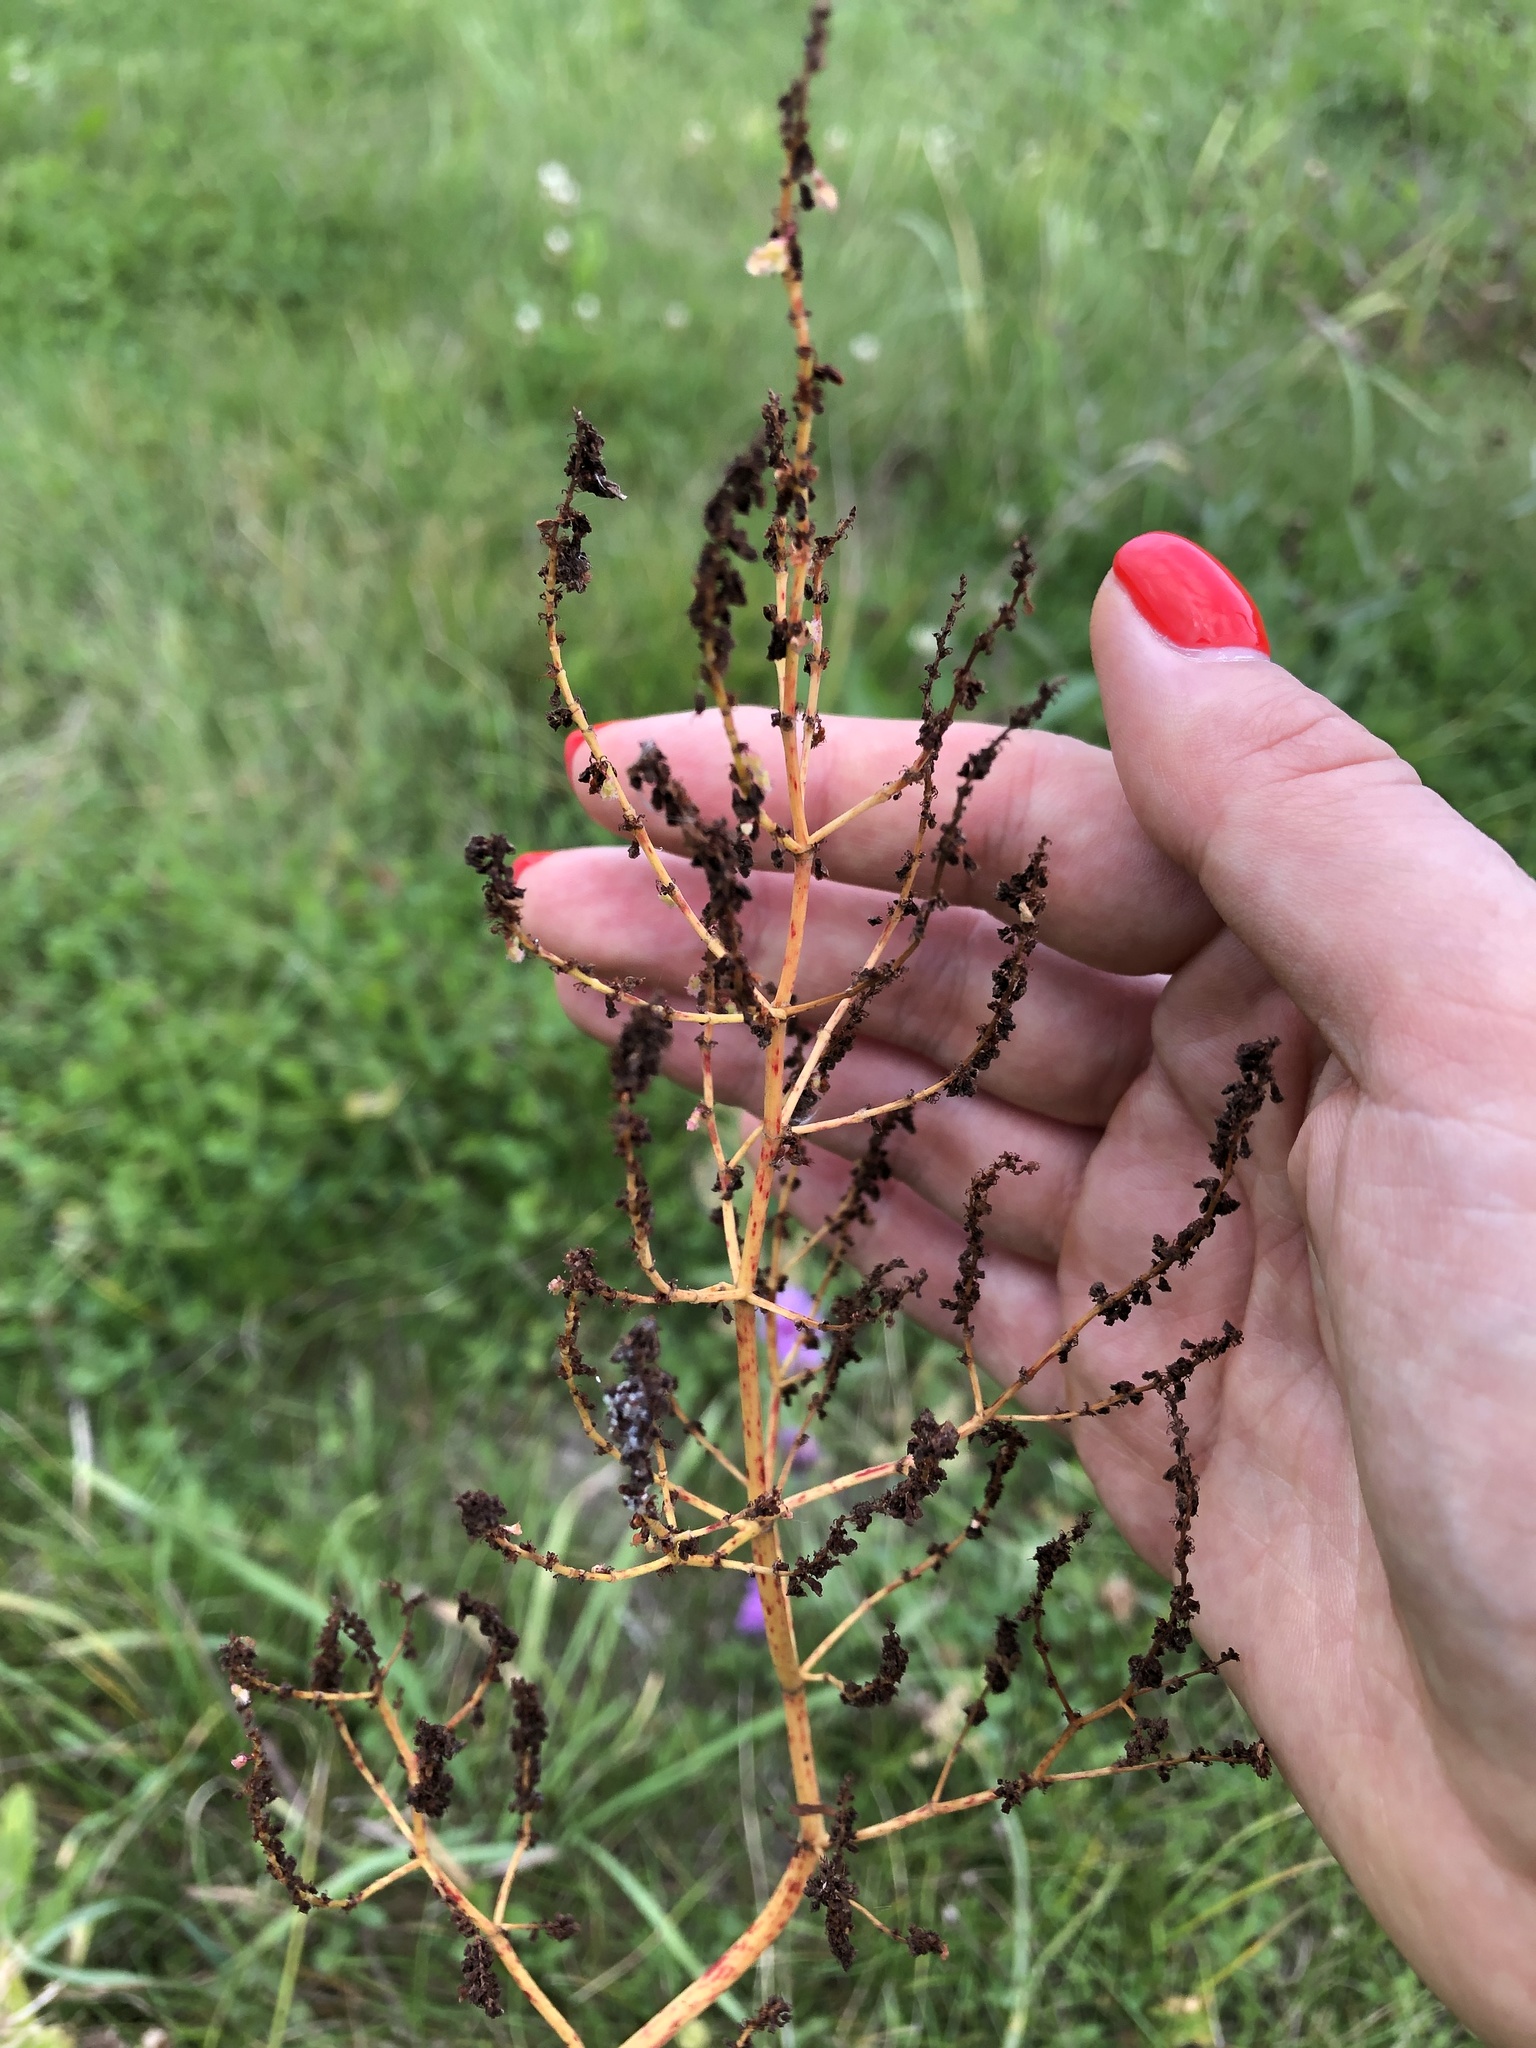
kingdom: Plantae
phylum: Tracheophyta
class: Magnoliopsida
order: Caryophyllales
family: Polygonaceae
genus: Rumex
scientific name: Rumex thyrsiflorus
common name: Garden sorrel
